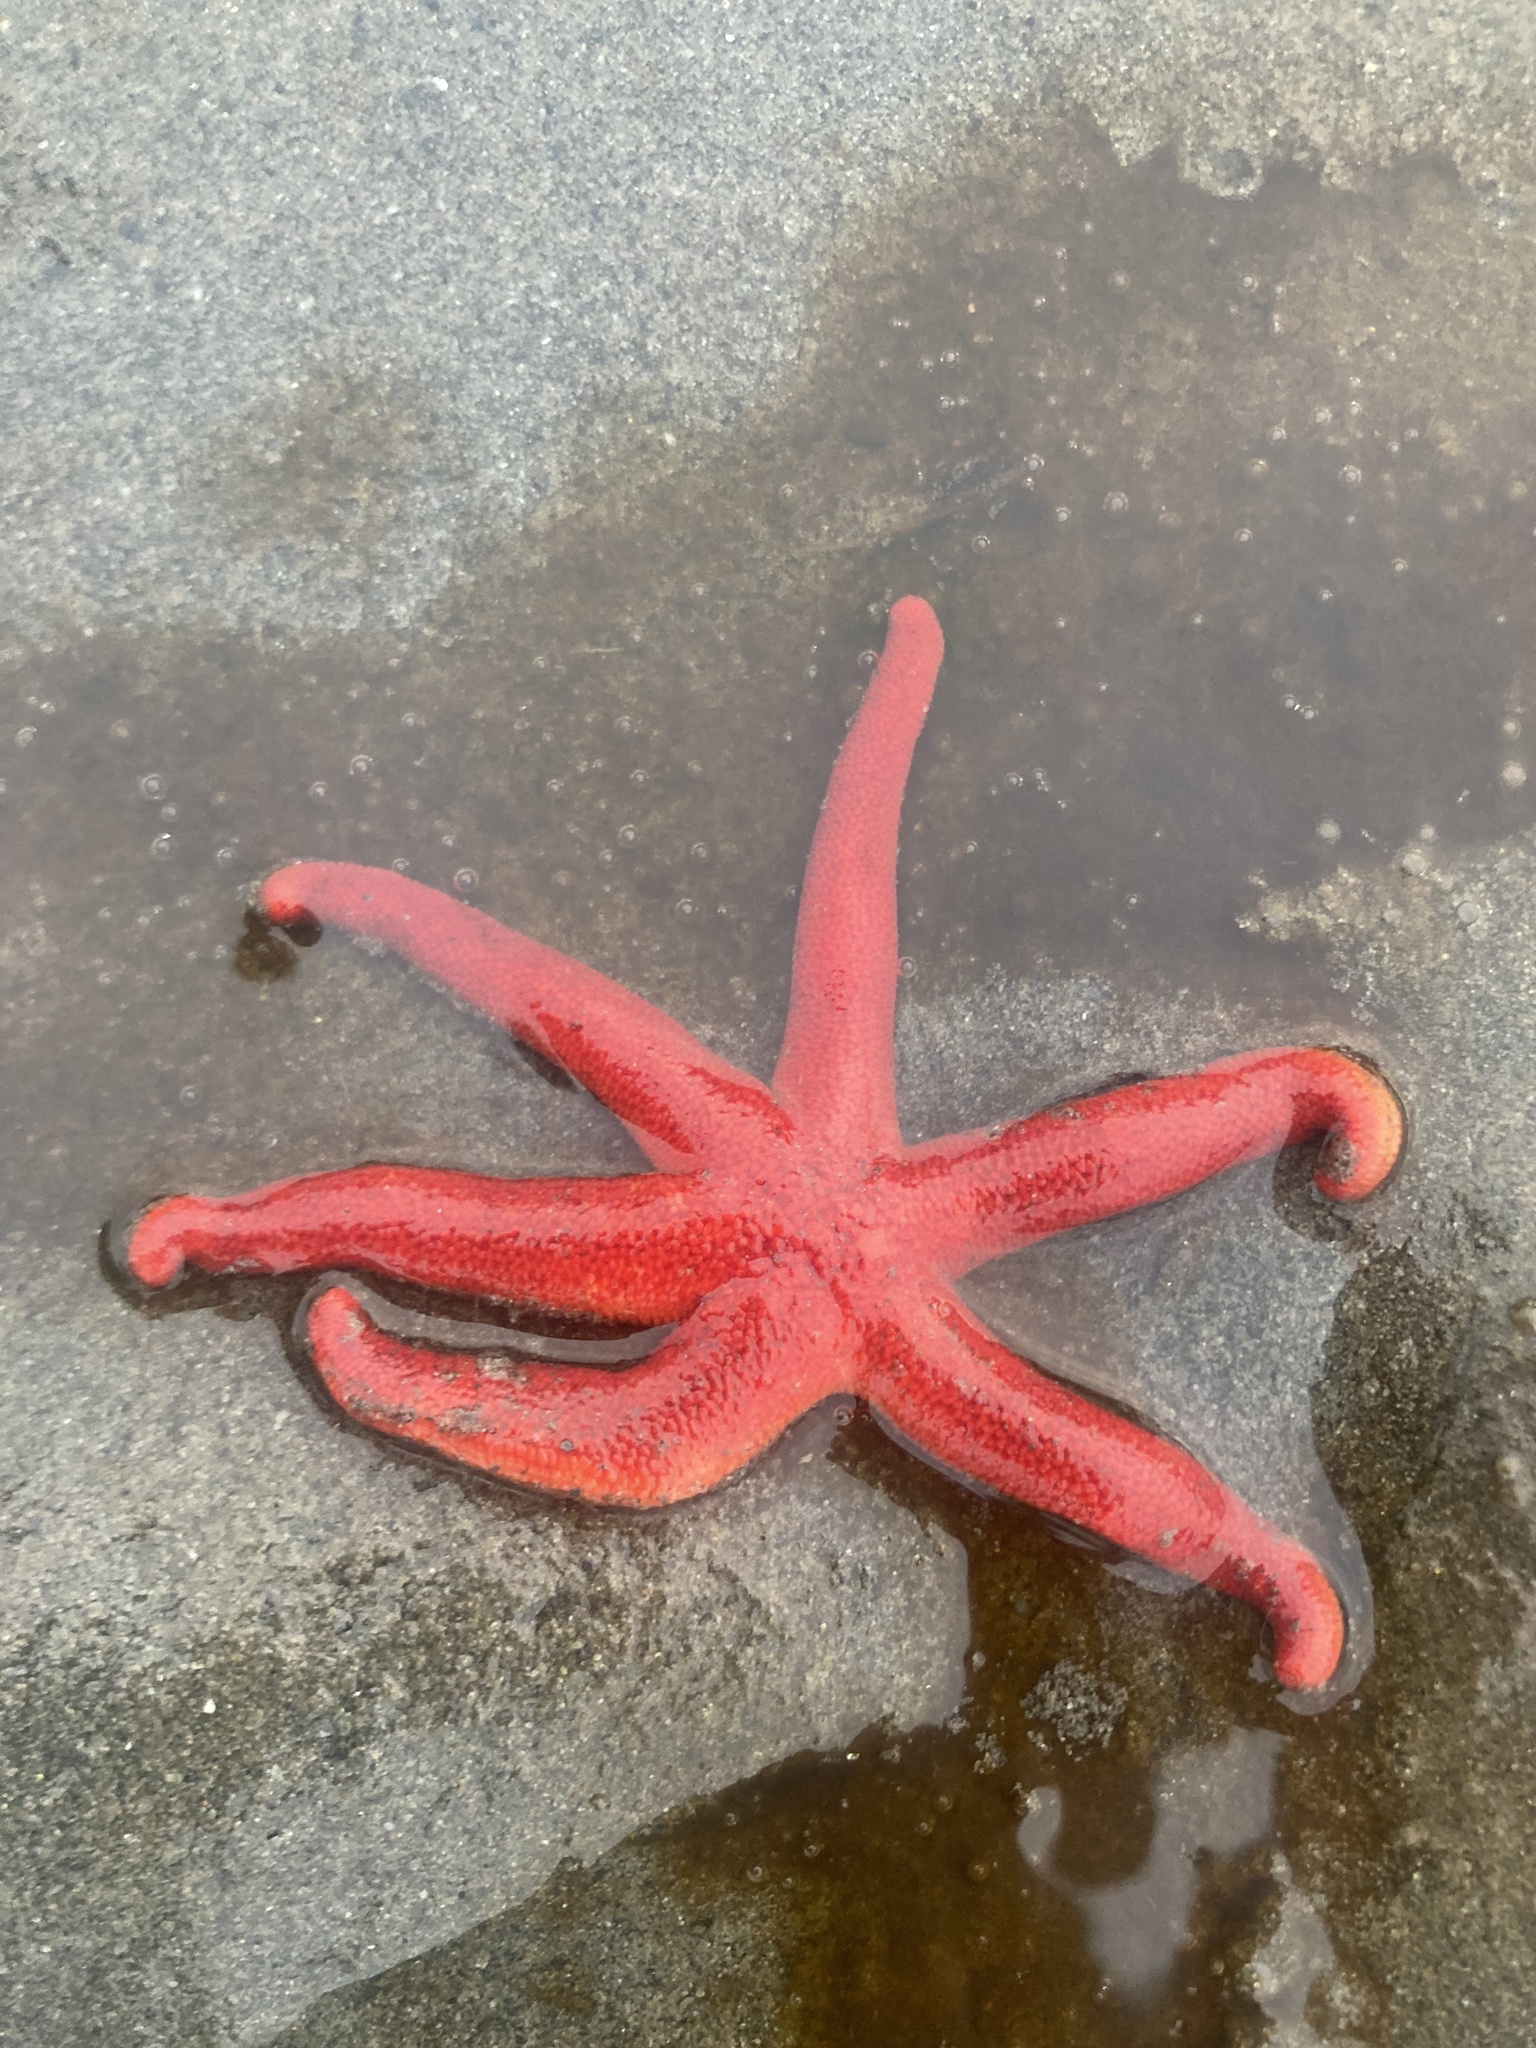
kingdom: Animalia
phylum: Echinodermata
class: Asteroidea
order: Spinulosida
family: Echinasteridae
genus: Henricia
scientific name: Henricia leviuscula
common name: Pacific blood star
